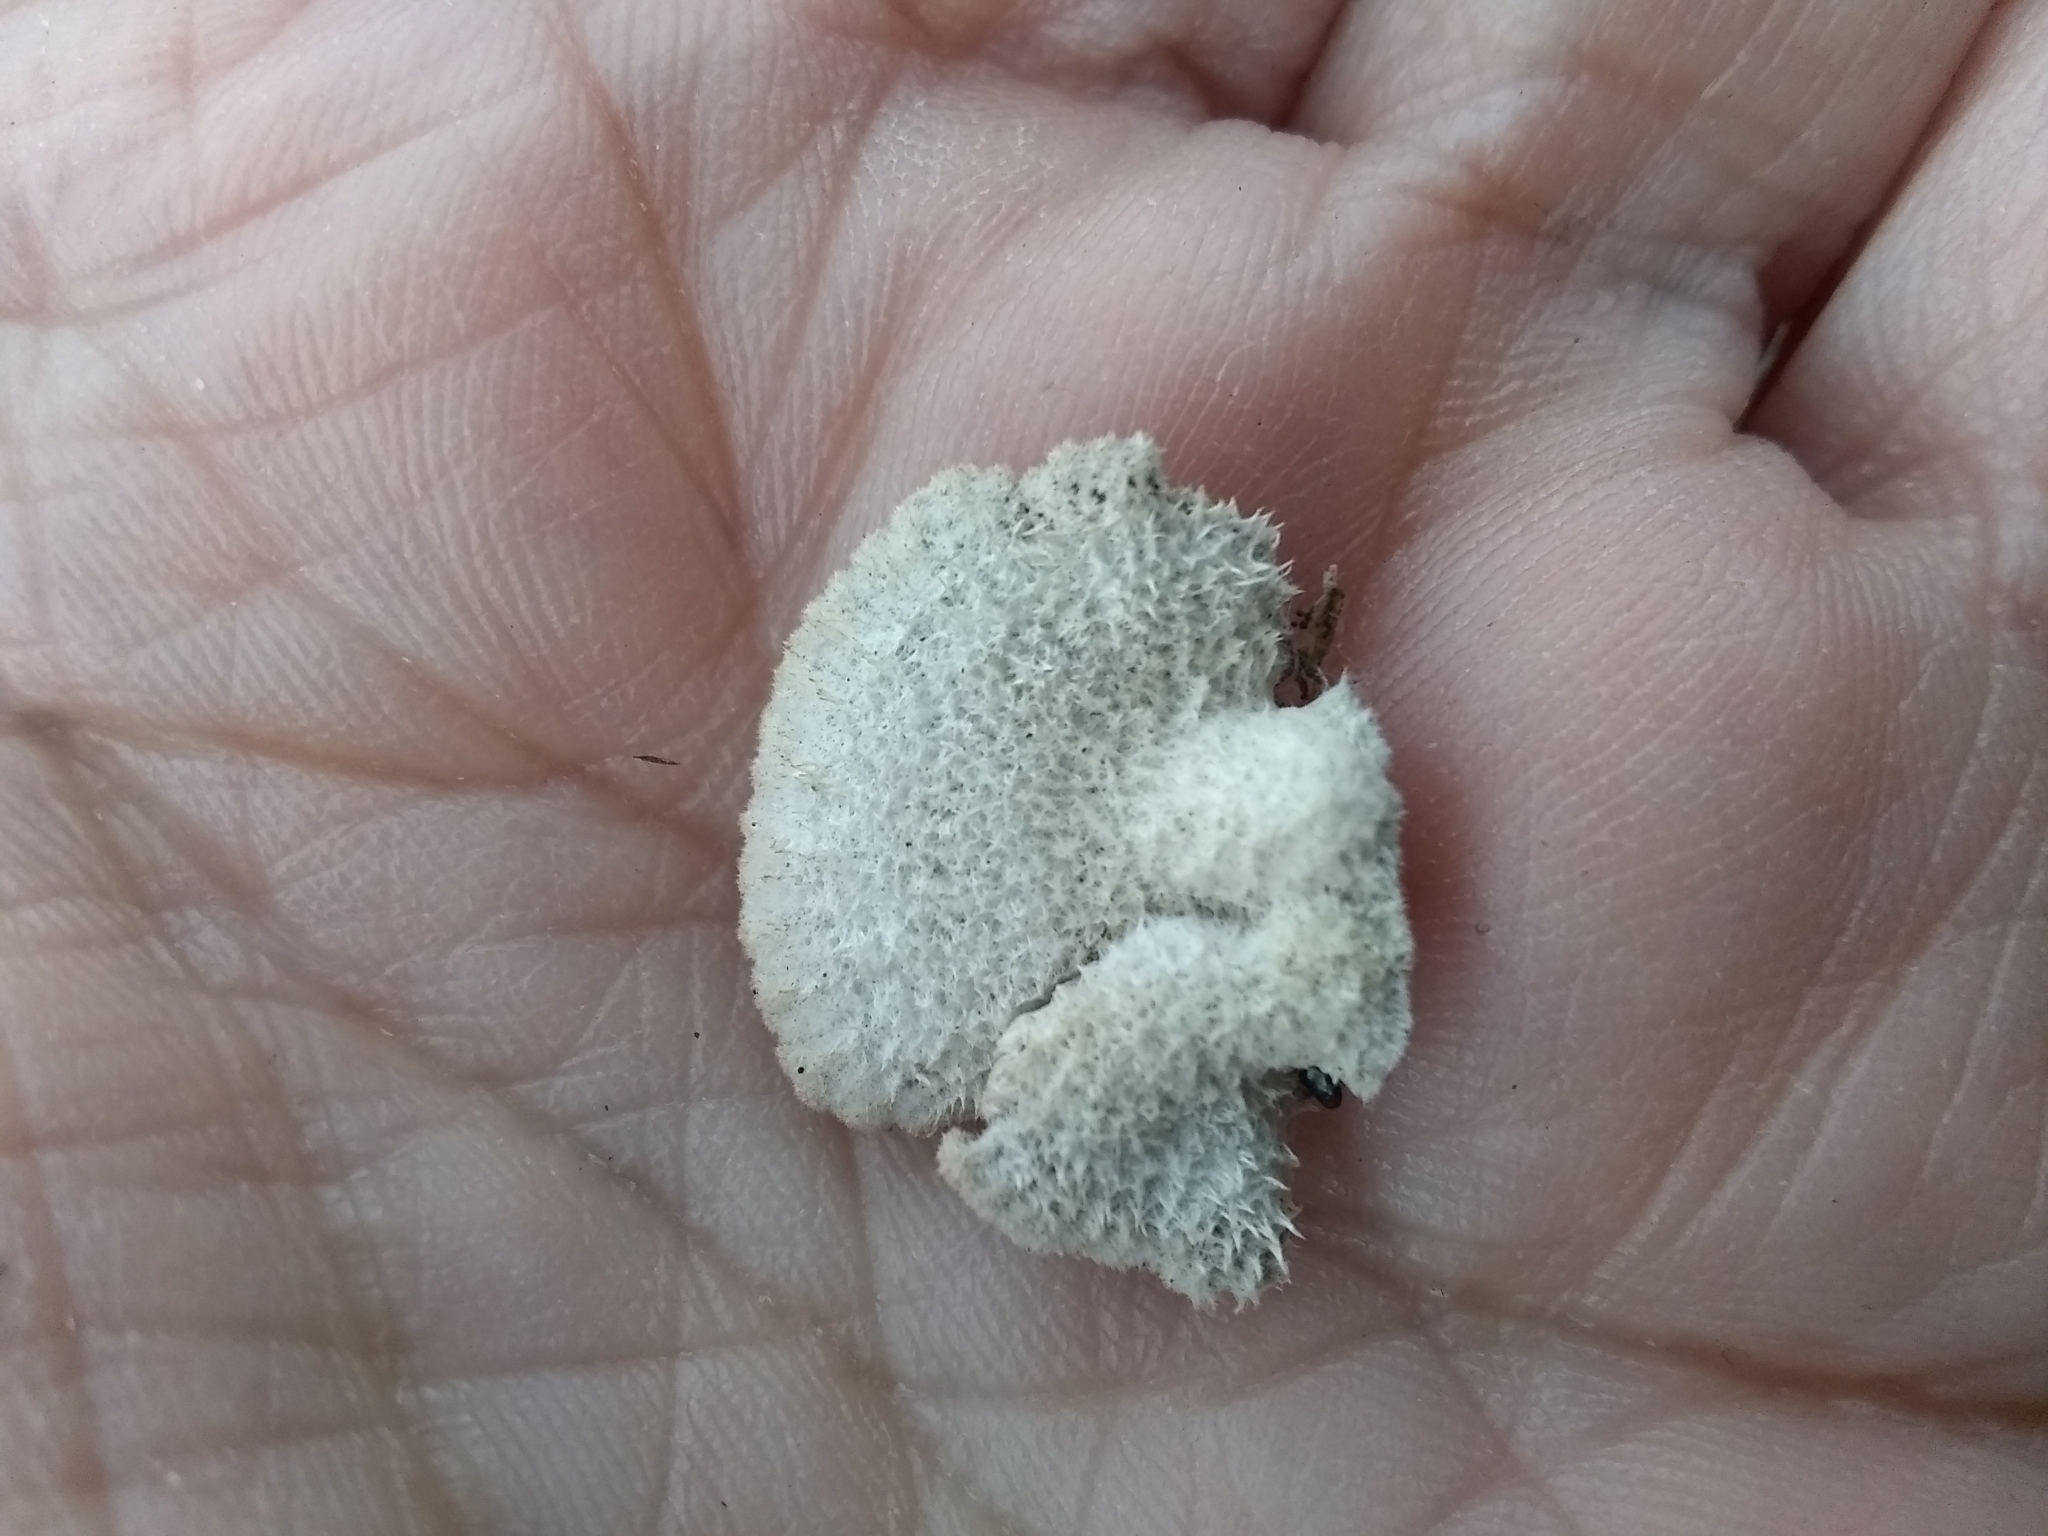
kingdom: Fungi
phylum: Basidiomycota
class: Agaricomycetes
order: Agaricales
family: Schizophyllaceae
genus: Schizophyllum
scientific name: Schizophyllum commune
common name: Common porecrust
